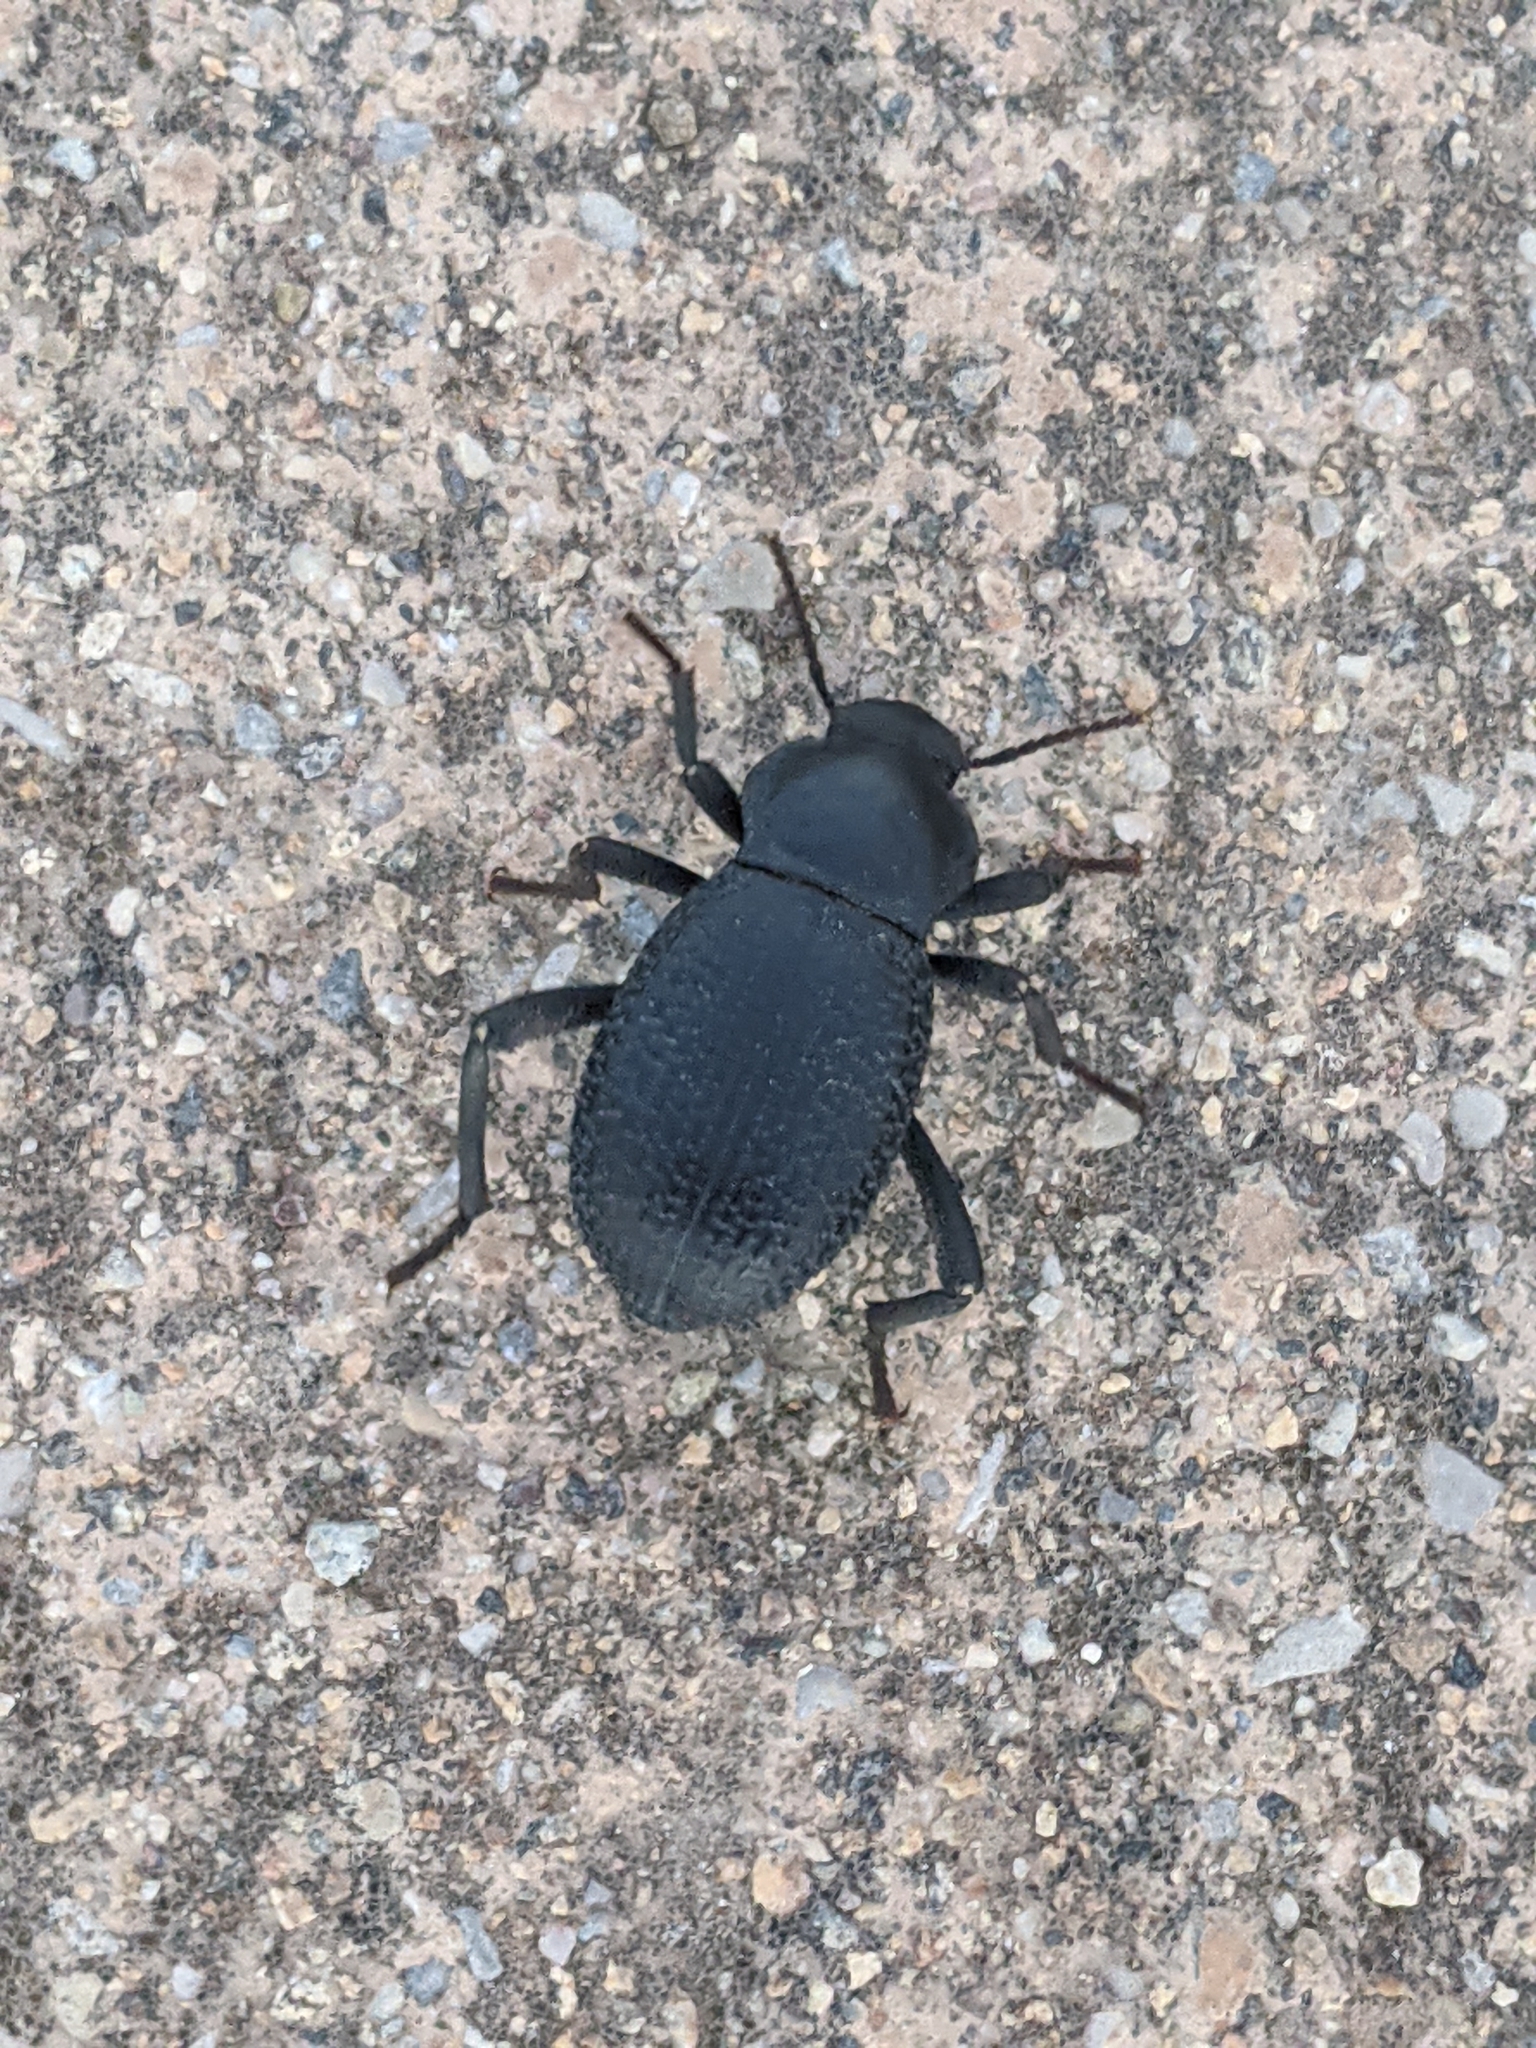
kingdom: Animalia
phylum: Arthropoda
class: Insecta
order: Coleoptera
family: Tenebrionidae
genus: Cryptoglossa
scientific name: Cryptoglossa infausta
